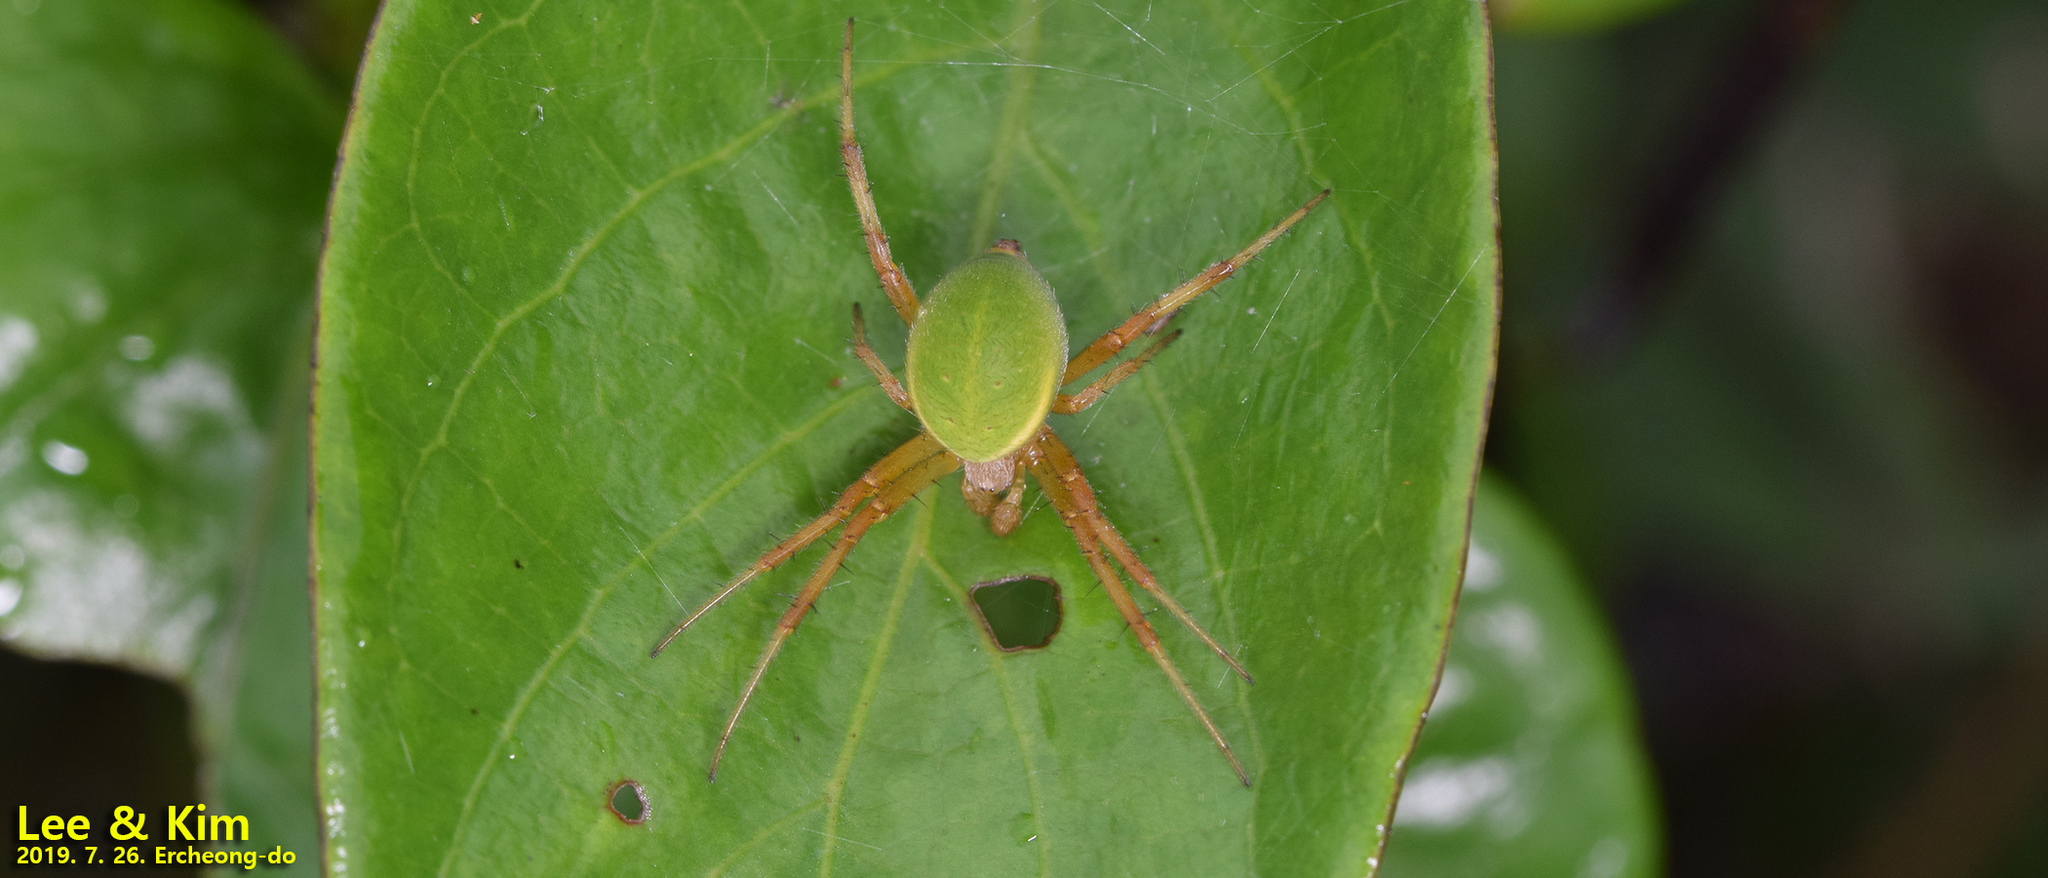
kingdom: Animalia
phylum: Arthropoda
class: Arachnida
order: Araneae
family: Araneidae
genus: Neoscona
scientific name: Neoscona scylloides
